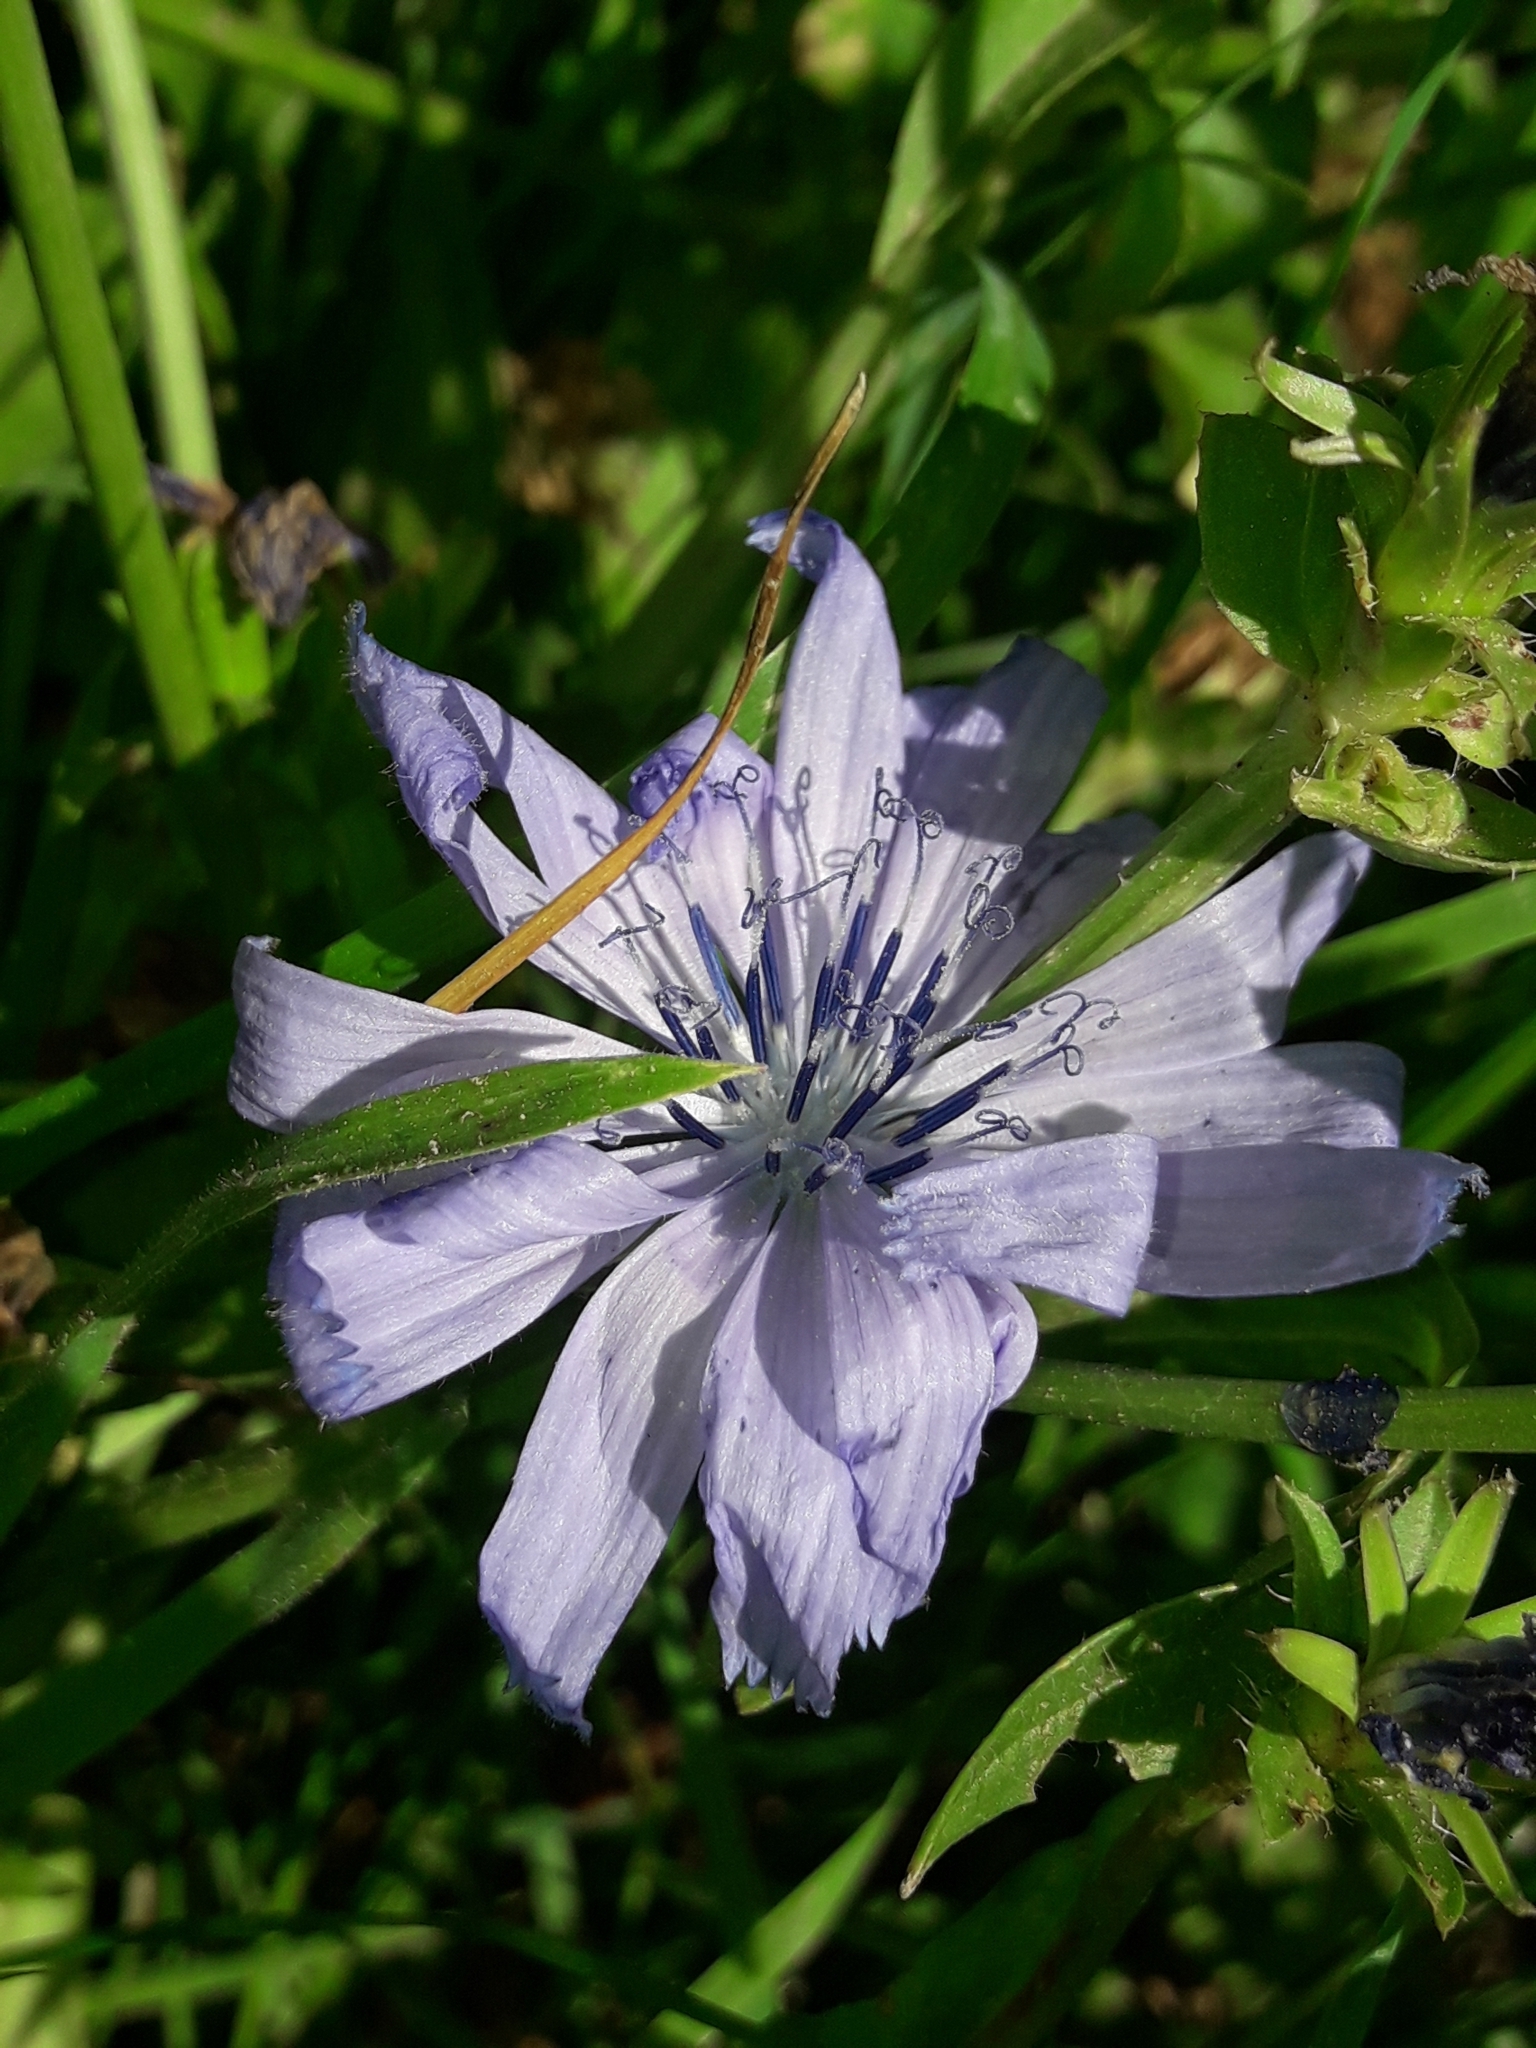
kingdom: Plantae
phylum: Tracheophyta
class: Magnoliopsida
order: Asterales
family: Asteraceae
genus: Cichorium
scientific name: Cichorium intybus
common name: Chicory
